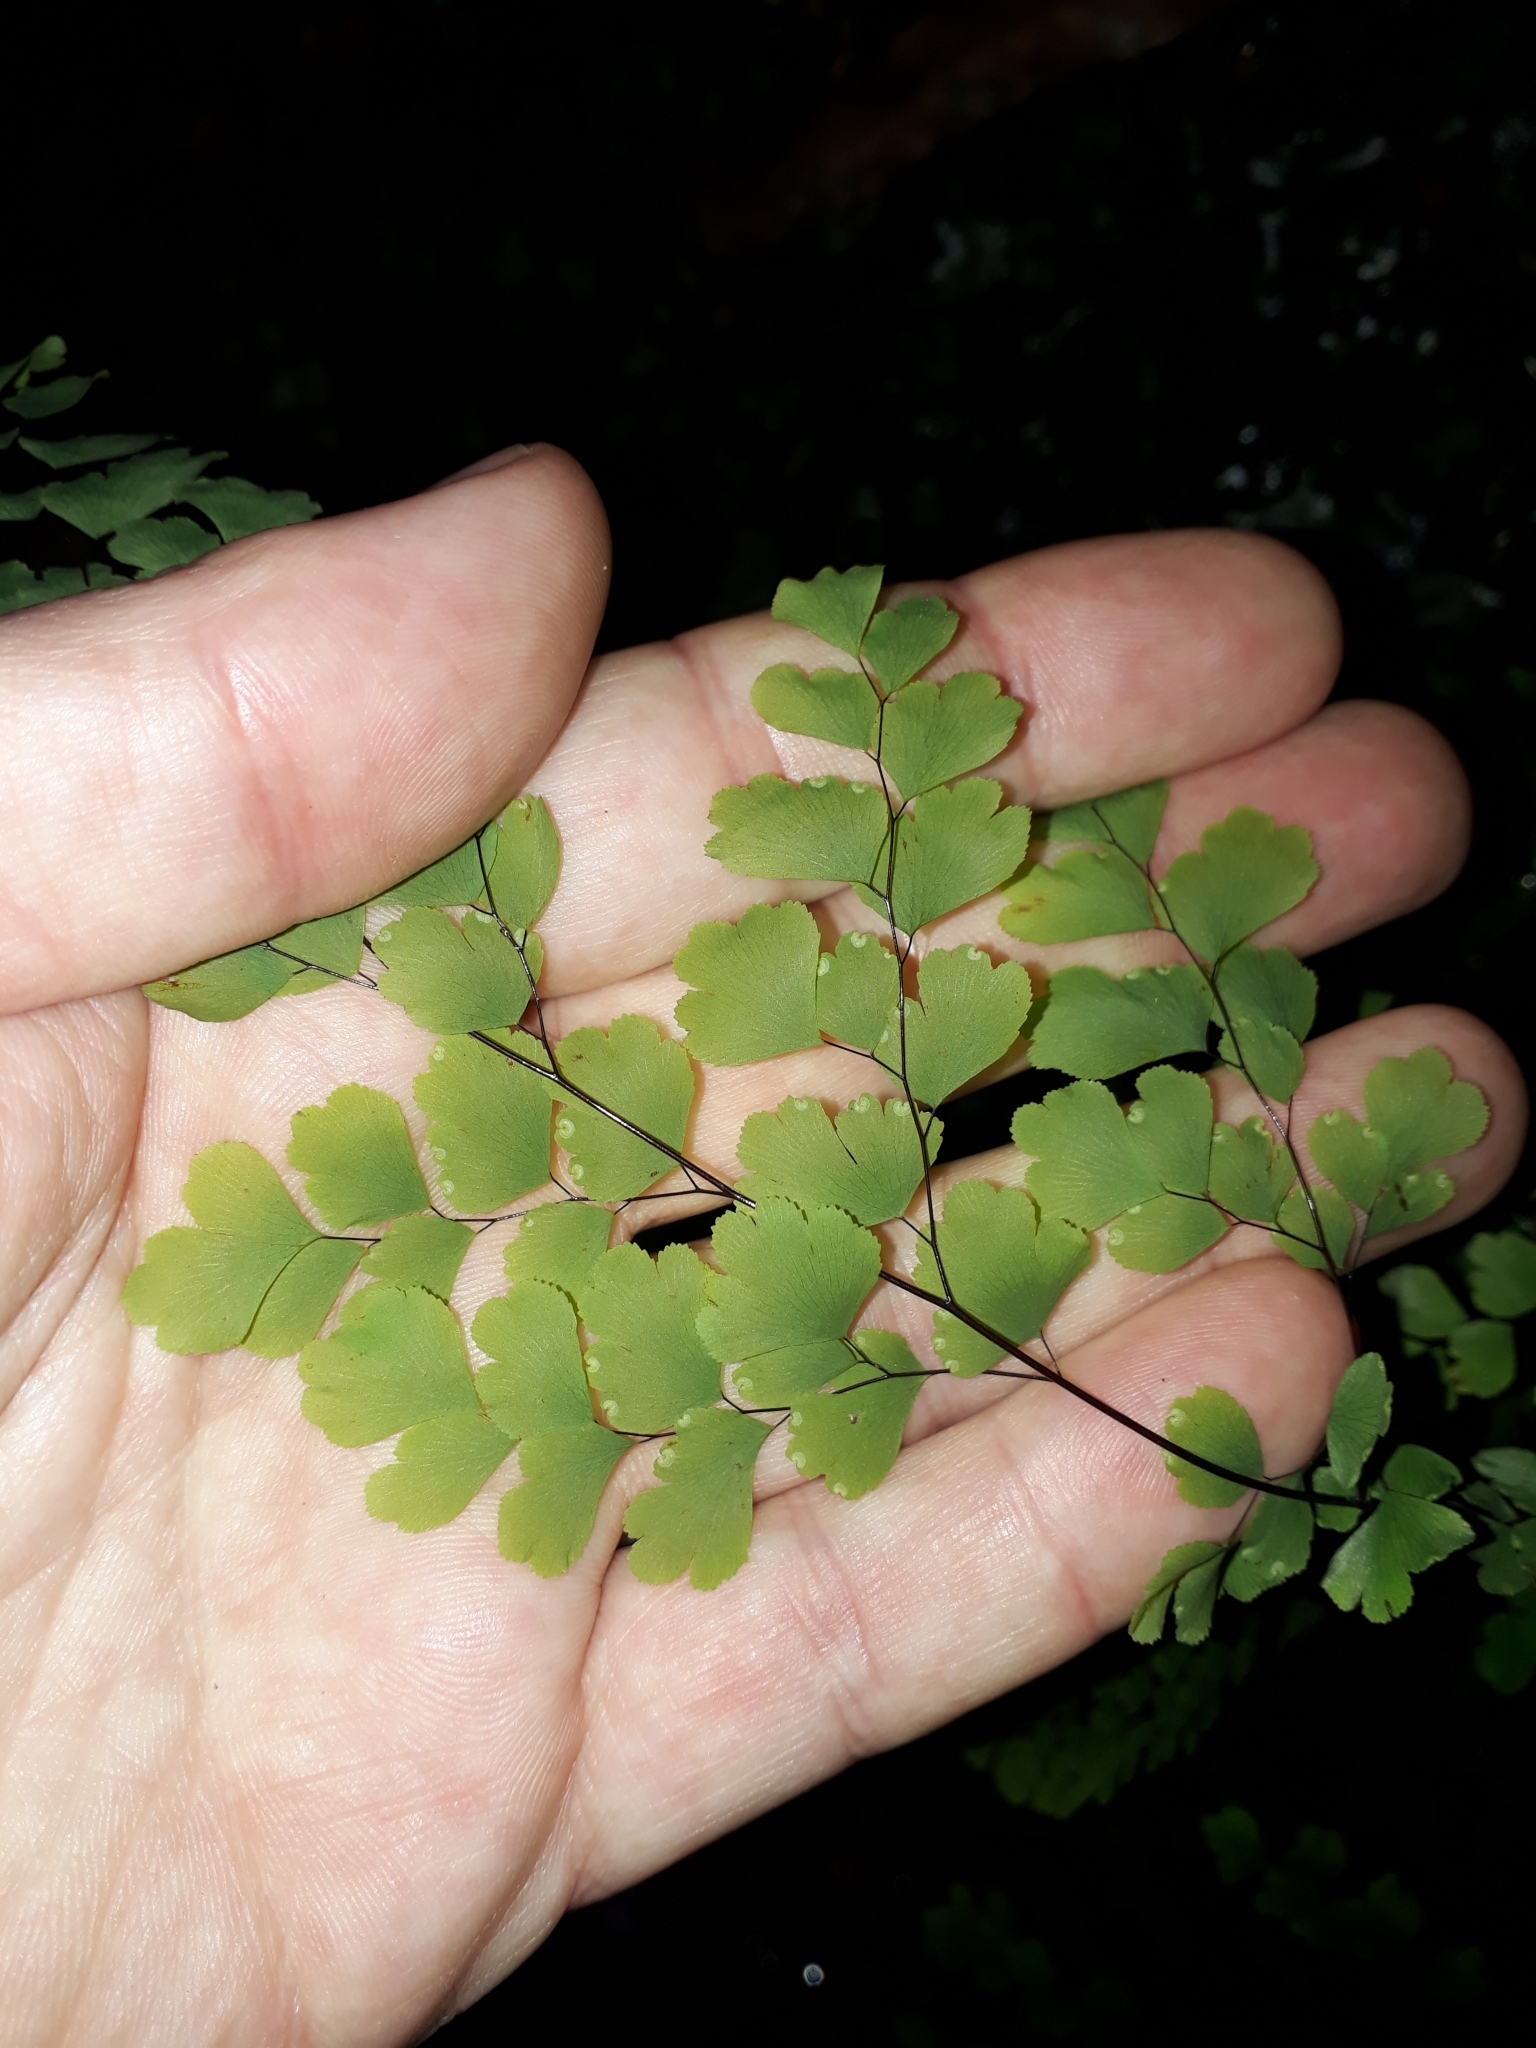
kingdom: Plantae
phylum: Tracheophyta
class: Polypodiopsida
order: Polypodiales
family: Pteridaceae
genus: Adiantum
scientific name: Adiantum raddianum
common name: Delta maidenhair fern
